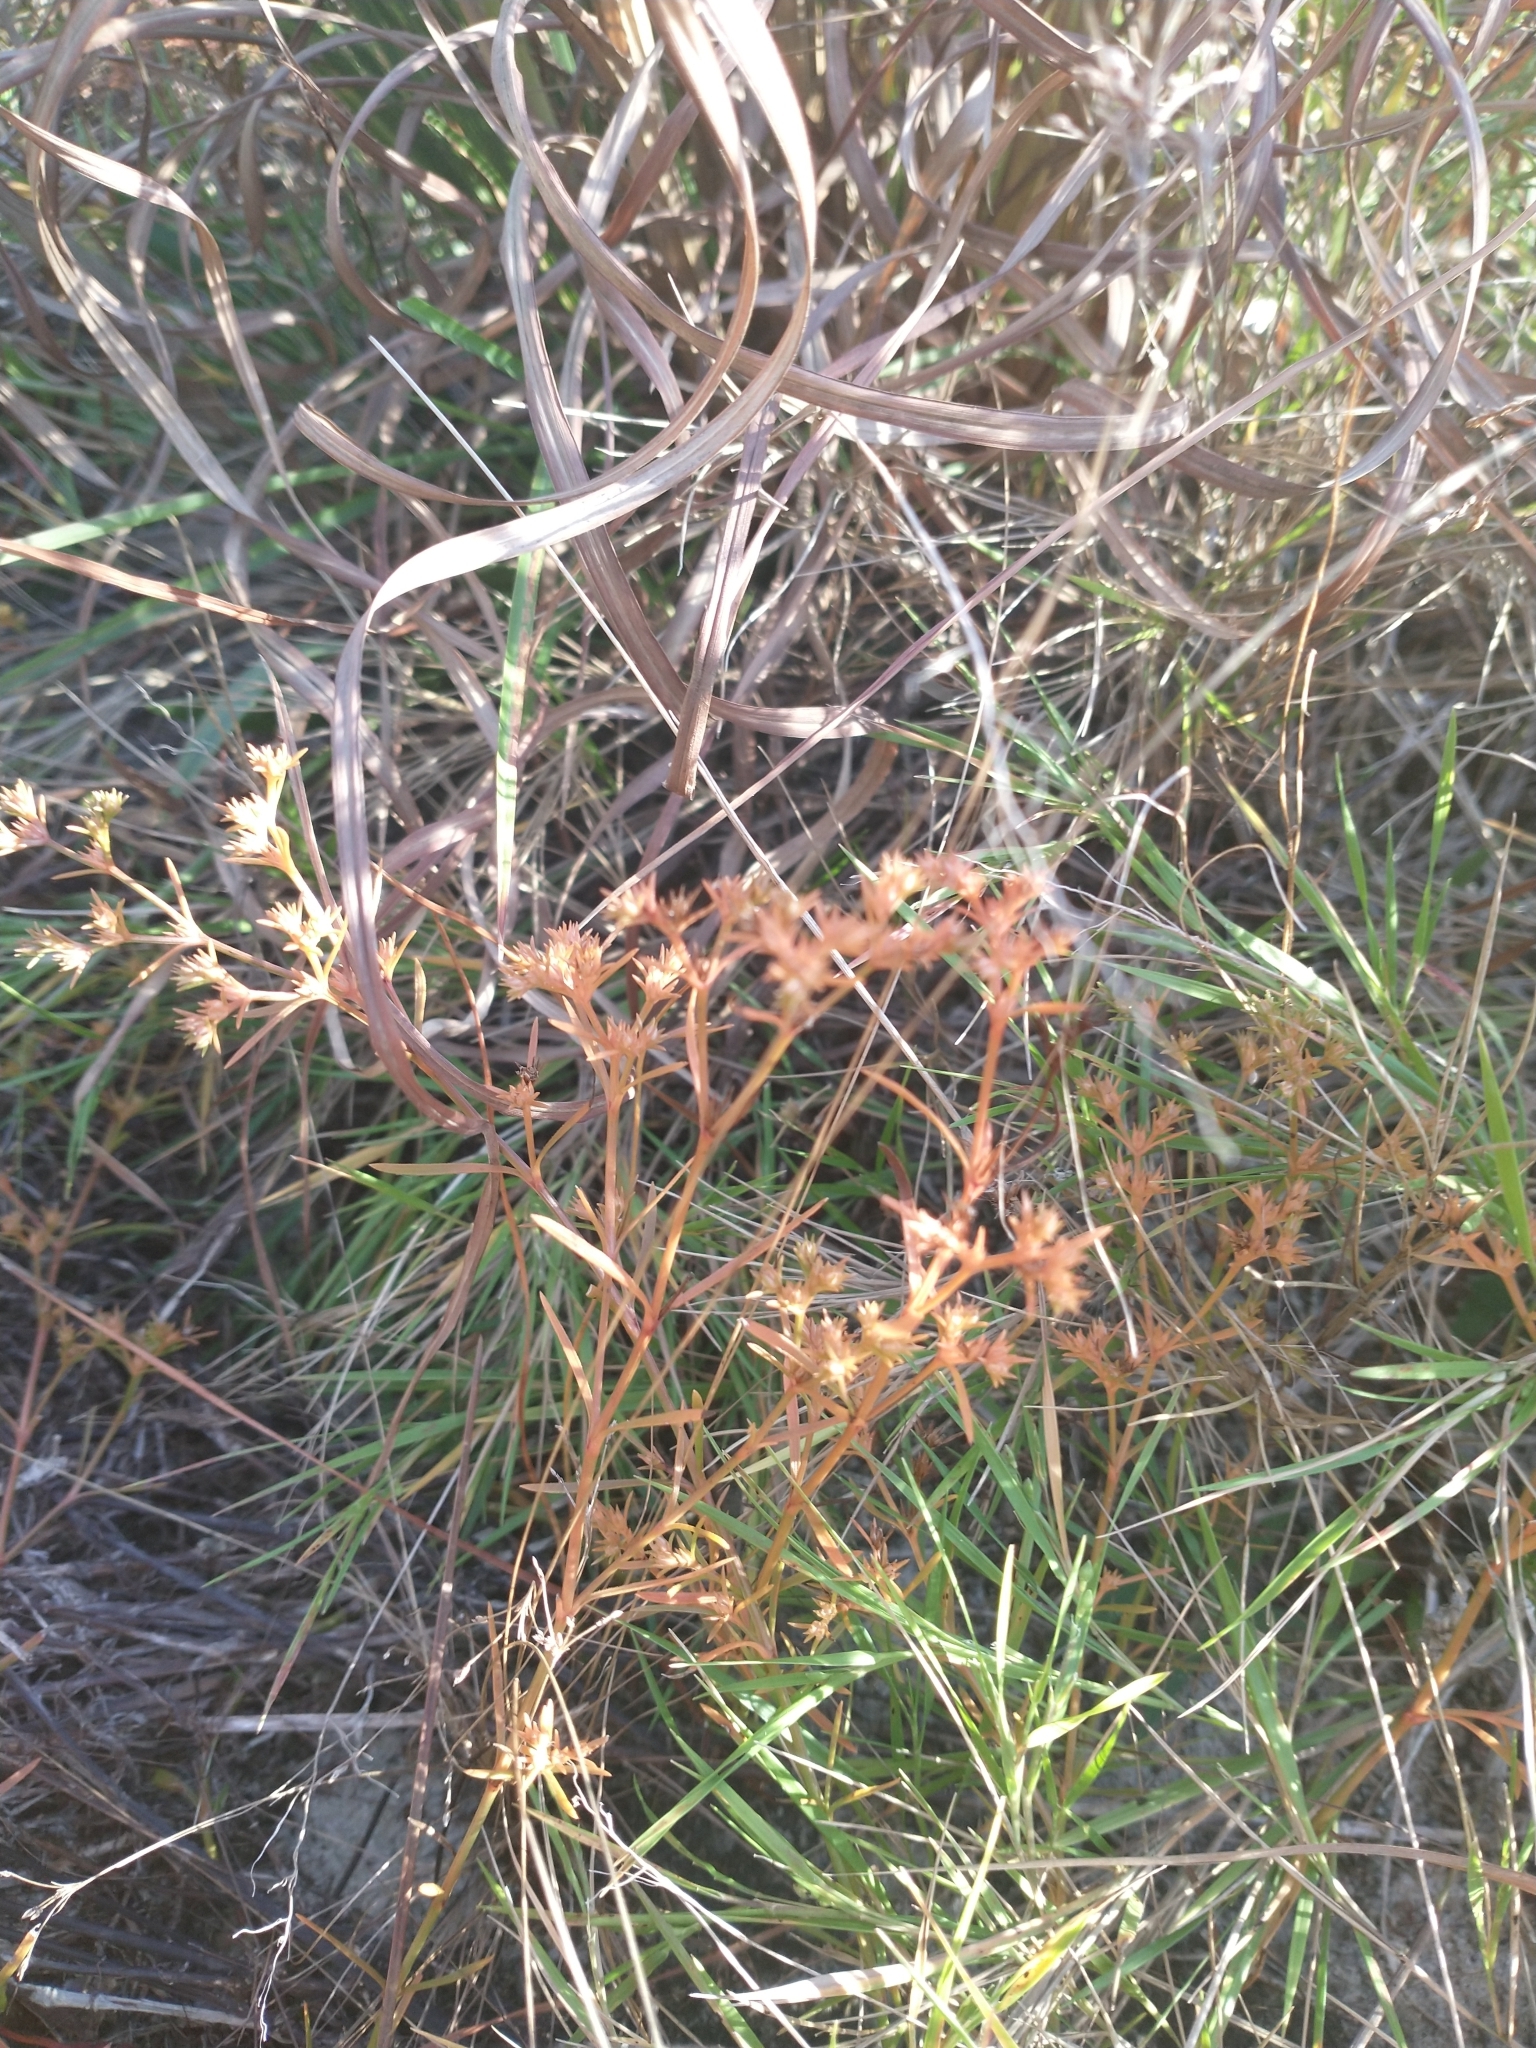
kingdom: Plantae
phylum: Tracheophyta
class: Magnoliopsida
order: Lamiales
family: Tetrachondraceae
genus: Polypremum
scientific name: Polypremum procumbens
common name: Juniper-leaf
